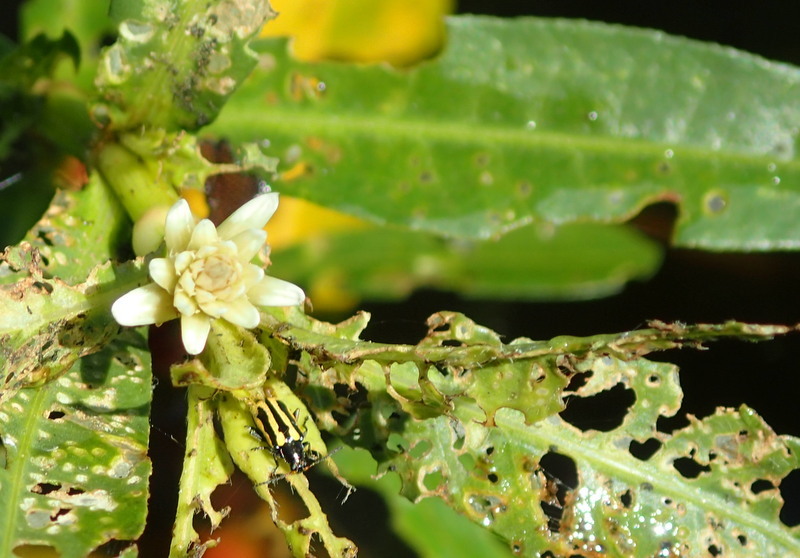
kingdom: Animalia
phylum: Arthropoda
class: Insecta
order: Coleoptera
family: Chrysomelidae
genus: Agasicles
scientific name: Agasicles hygrophila
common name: Alligatorweed flea beetle
